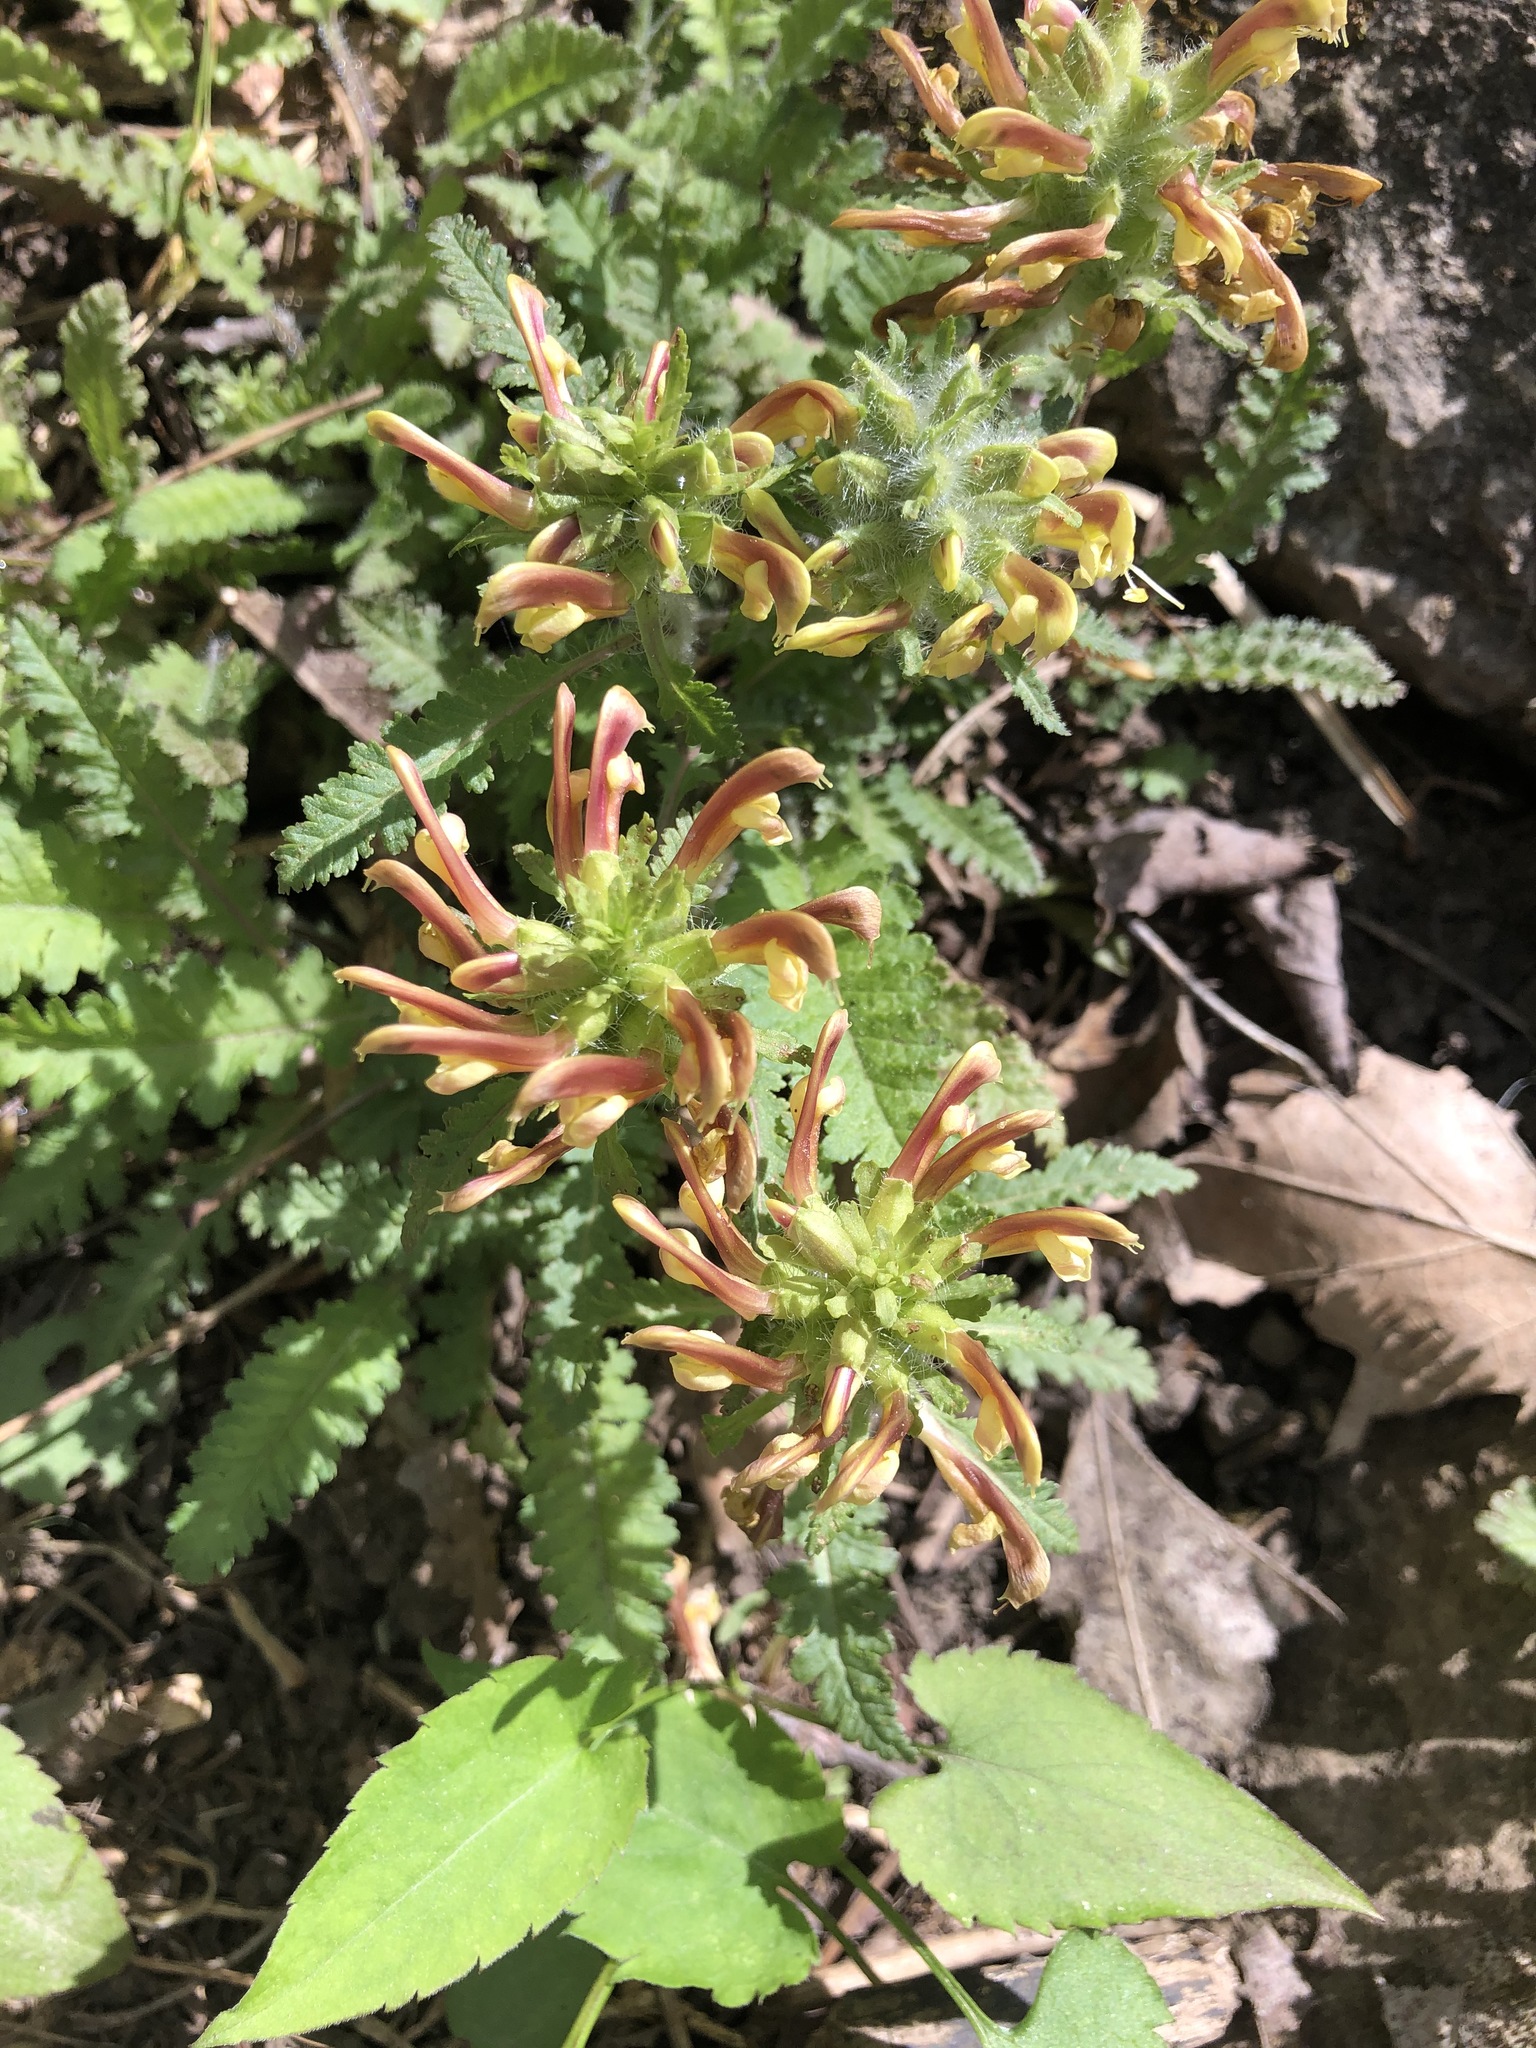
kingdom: Plantae
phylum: Tracheophyta
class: Magnoliopsida
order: Lamiales
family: Orobanchaceae
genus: Pedicularis
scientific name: Pedicularis canadensis
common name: Early lousewort
